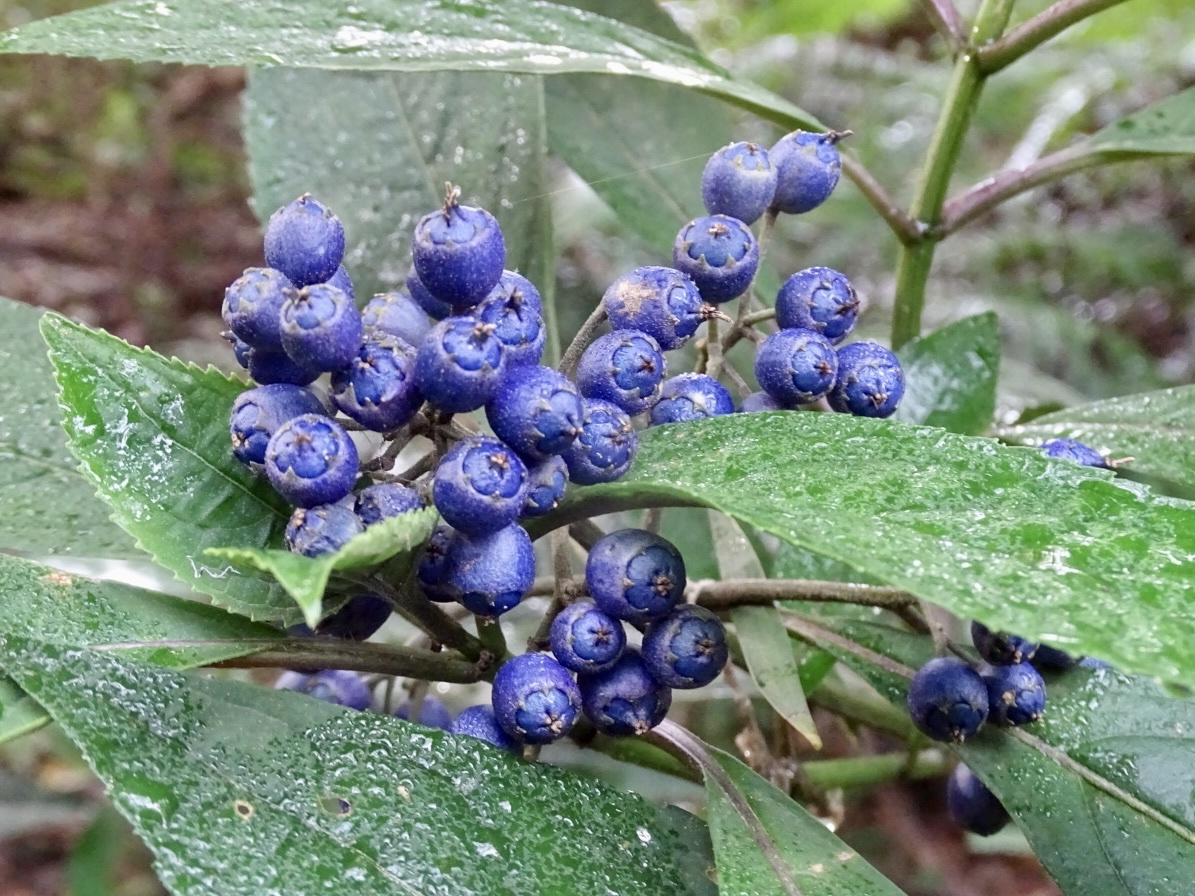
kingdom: Plantae
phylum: Tracheophyta
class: Magnoliopsida
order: Cornales
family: Hydrangeaceae
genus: Hydrangea
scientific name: Hydrangea febrifuga
